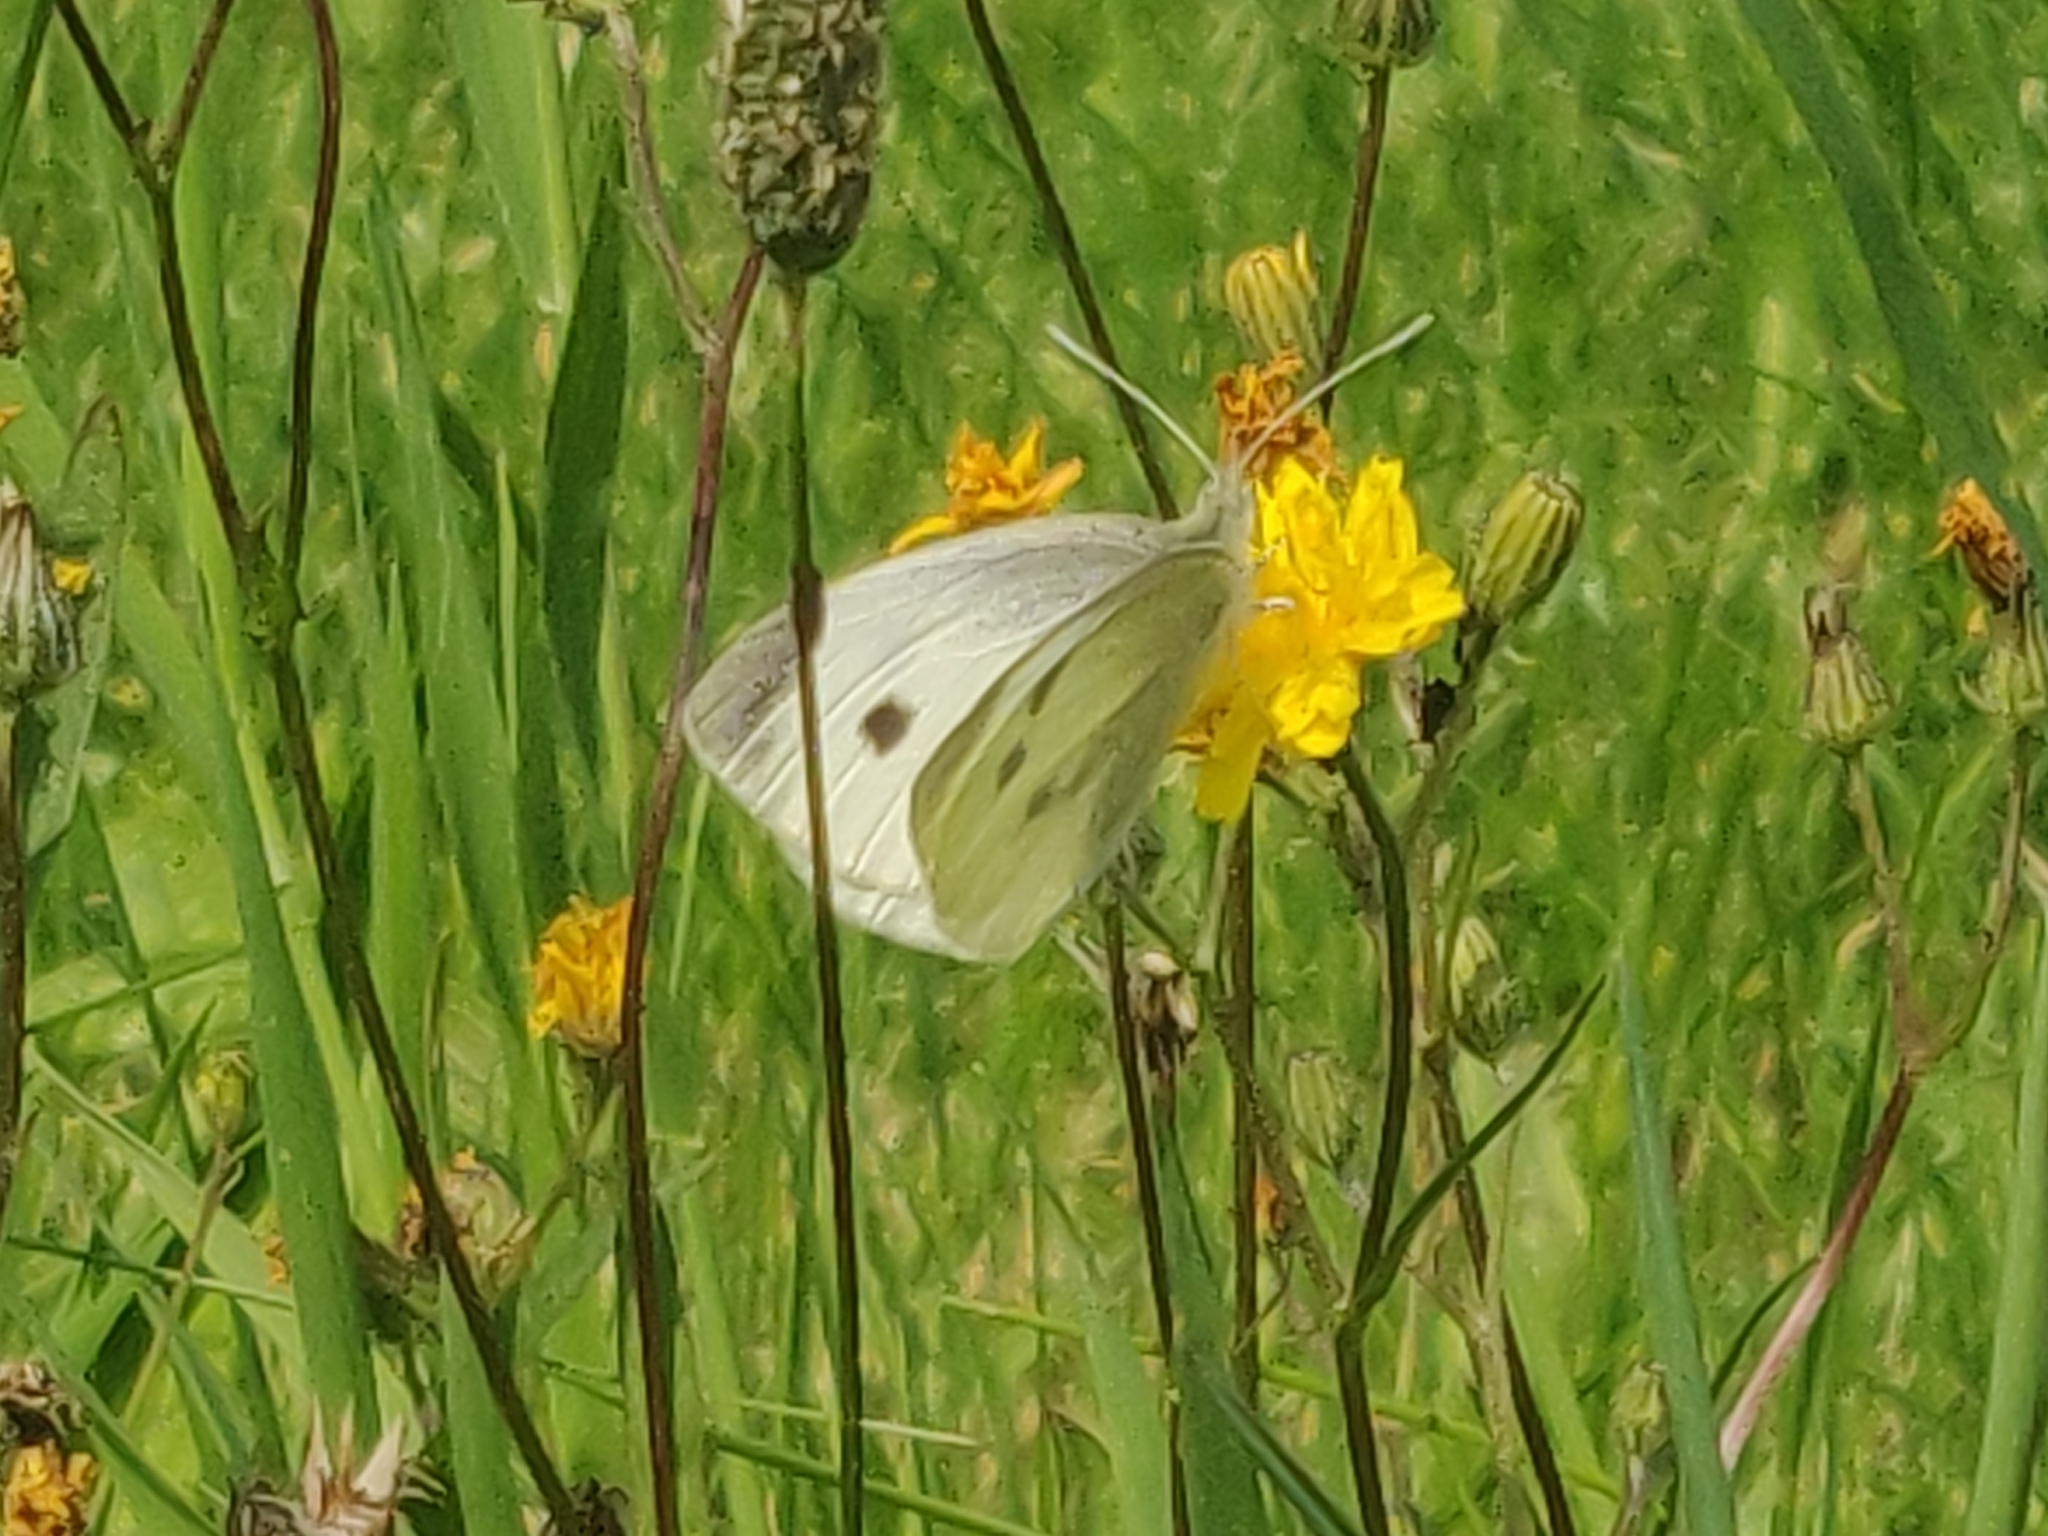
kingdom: Animalia
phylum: Arthropoda
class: Insecta
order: Lepidoptera
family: Pieridae
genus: Pieris
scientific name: Pieris rapae
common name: Small white
